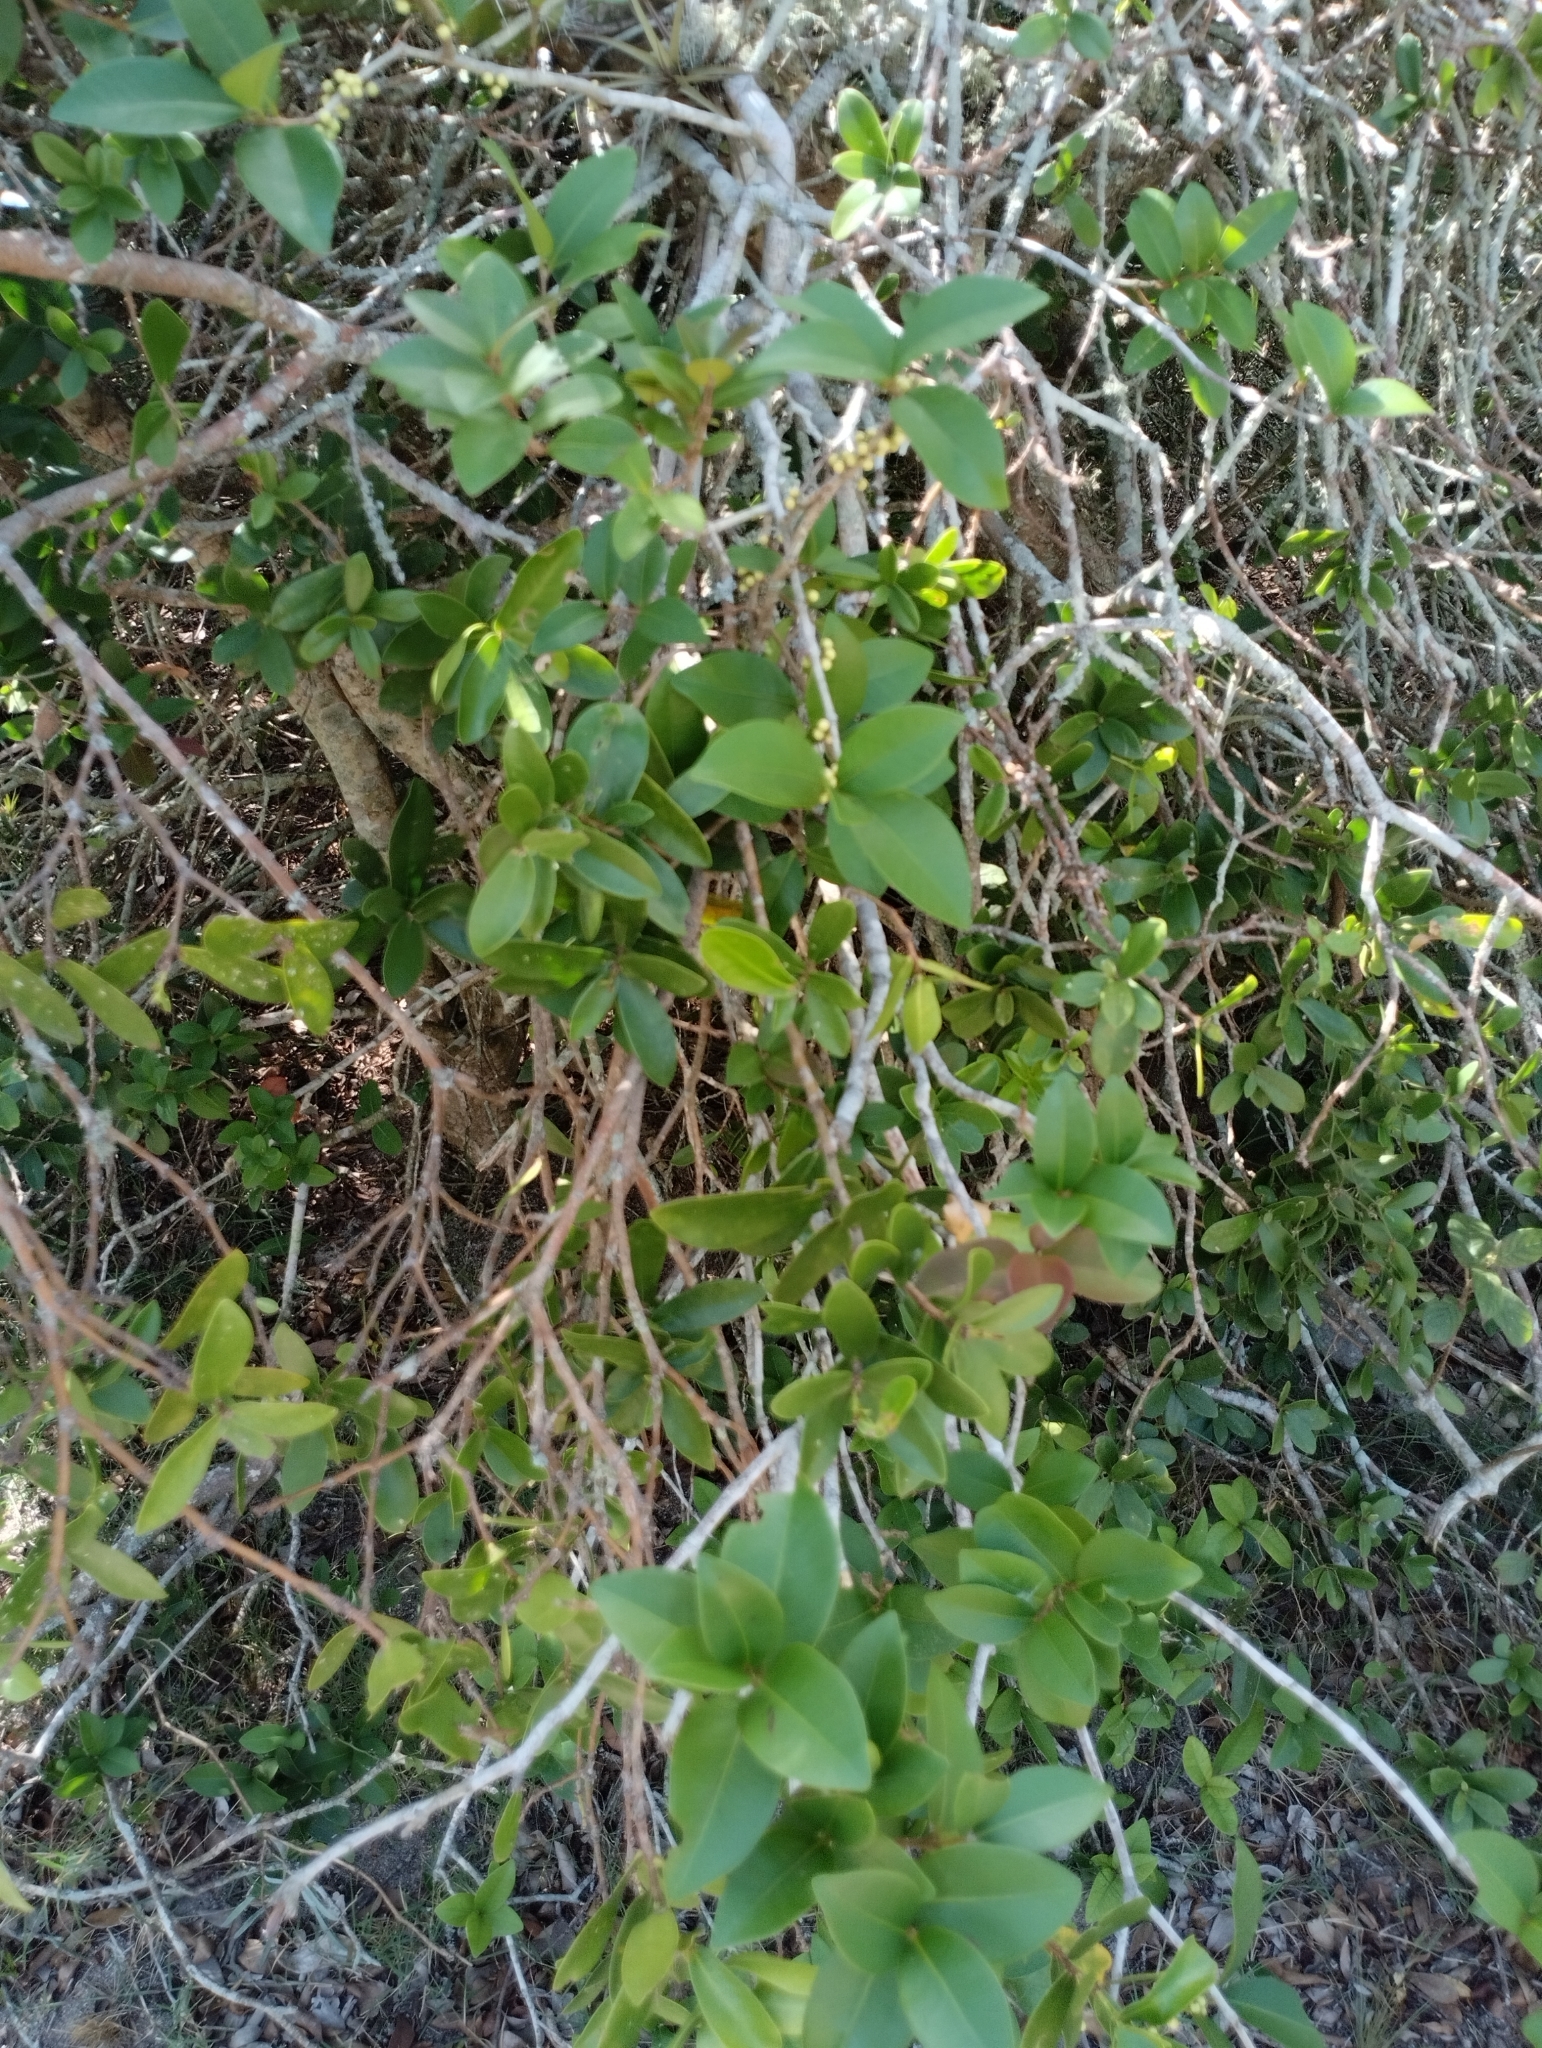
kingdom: Plantae
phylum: Tracheophyta
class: Magnoliopsida
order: Malvales
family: Thymelaeaceae
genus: Daphnopsis
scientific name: Daphnopsis racemosa
